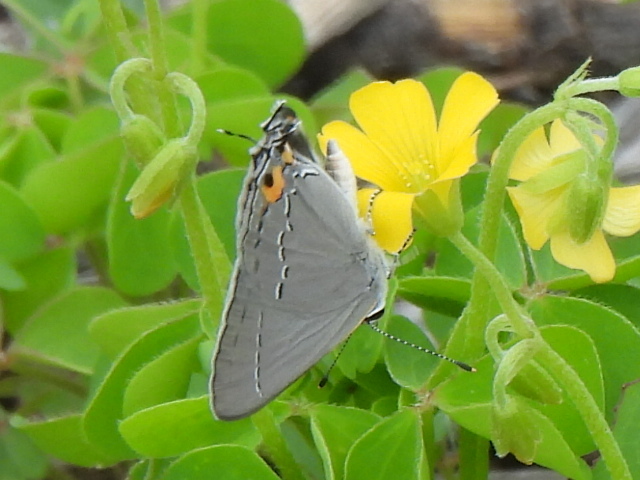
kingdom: Animalia
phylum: Arthropoda
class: Insecta
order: Lepidoptera
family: Lycaenidae
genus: Strymon
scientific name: Strymon melinus
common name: Gray hairstreak
